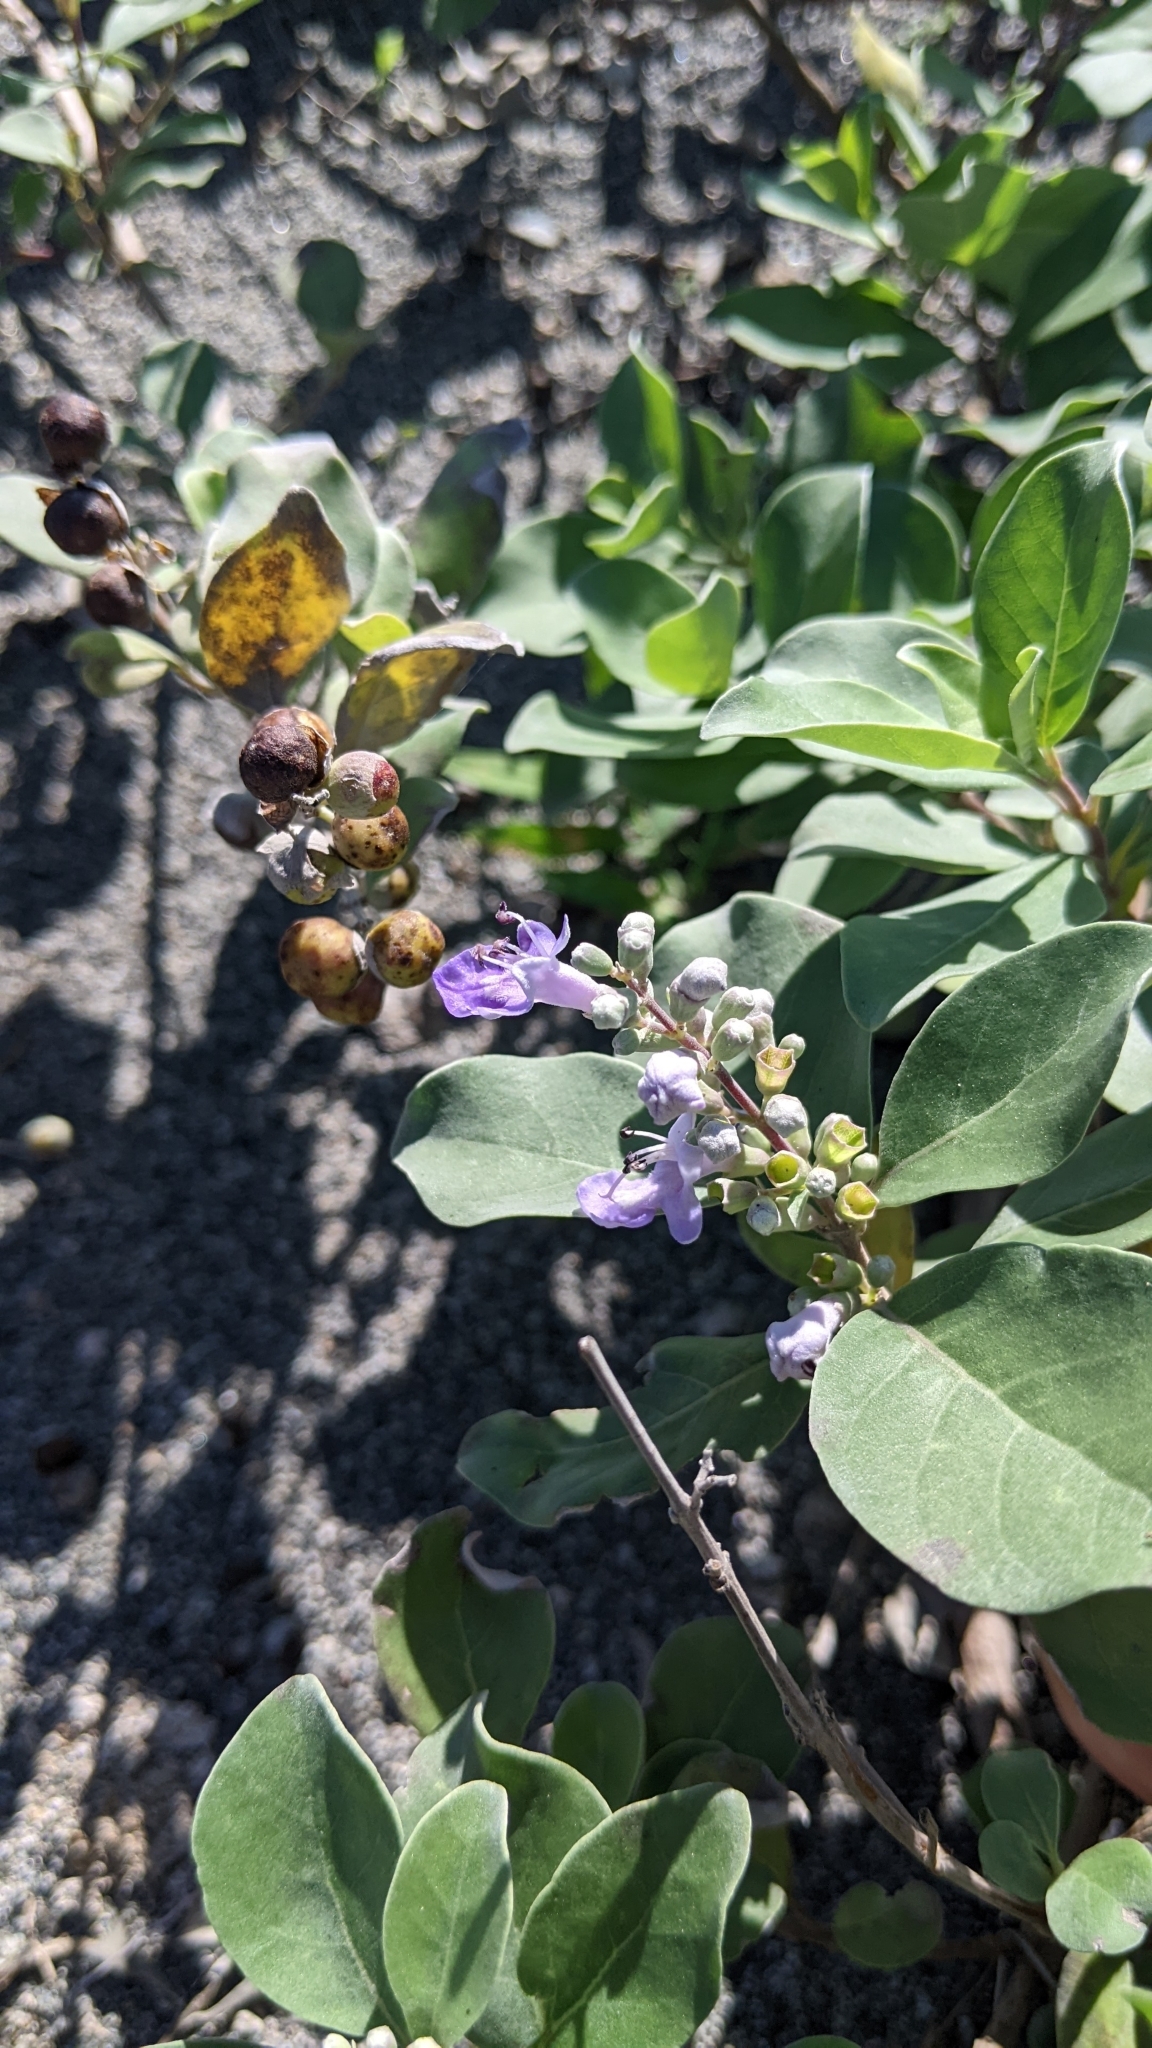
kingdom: Plantae
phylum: Tracheophyta
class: Magnoliopsida
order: Lamiales
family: Lamiaceae
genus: Vitex
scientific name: Vitex rotundifolia
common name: Beach vitex
